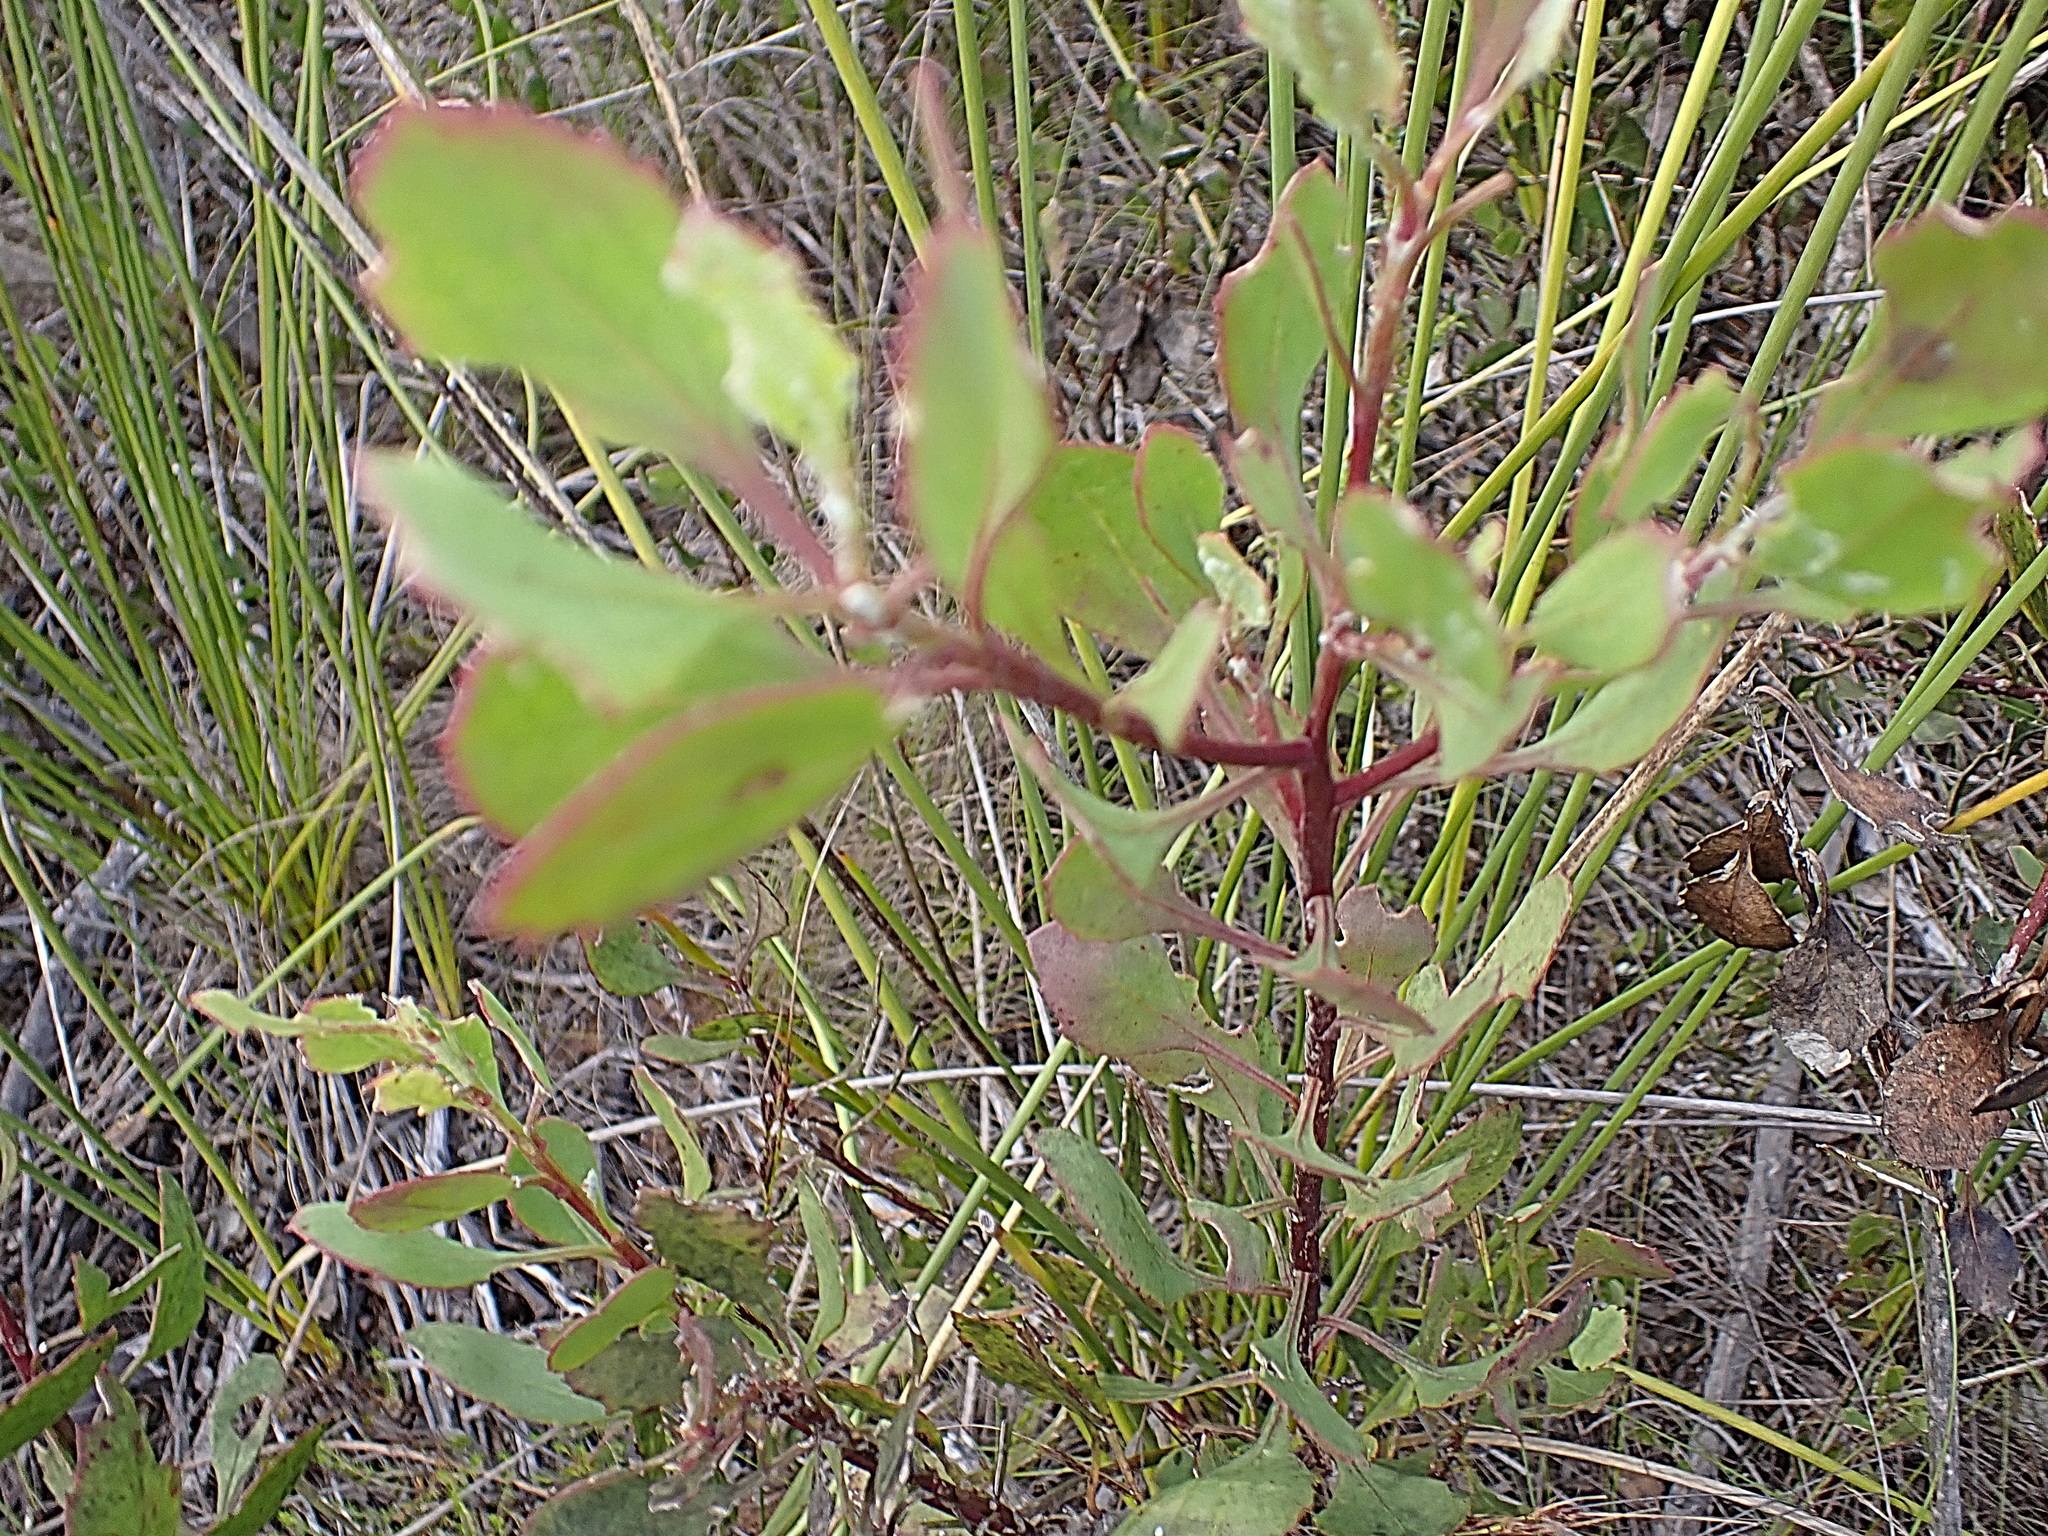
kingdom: Plantae
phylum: Tracheophyta
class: Magnoliopsida
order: Asterales
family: Asteraceae
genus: Osteospermum
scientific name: Osteospermum moniliferum
